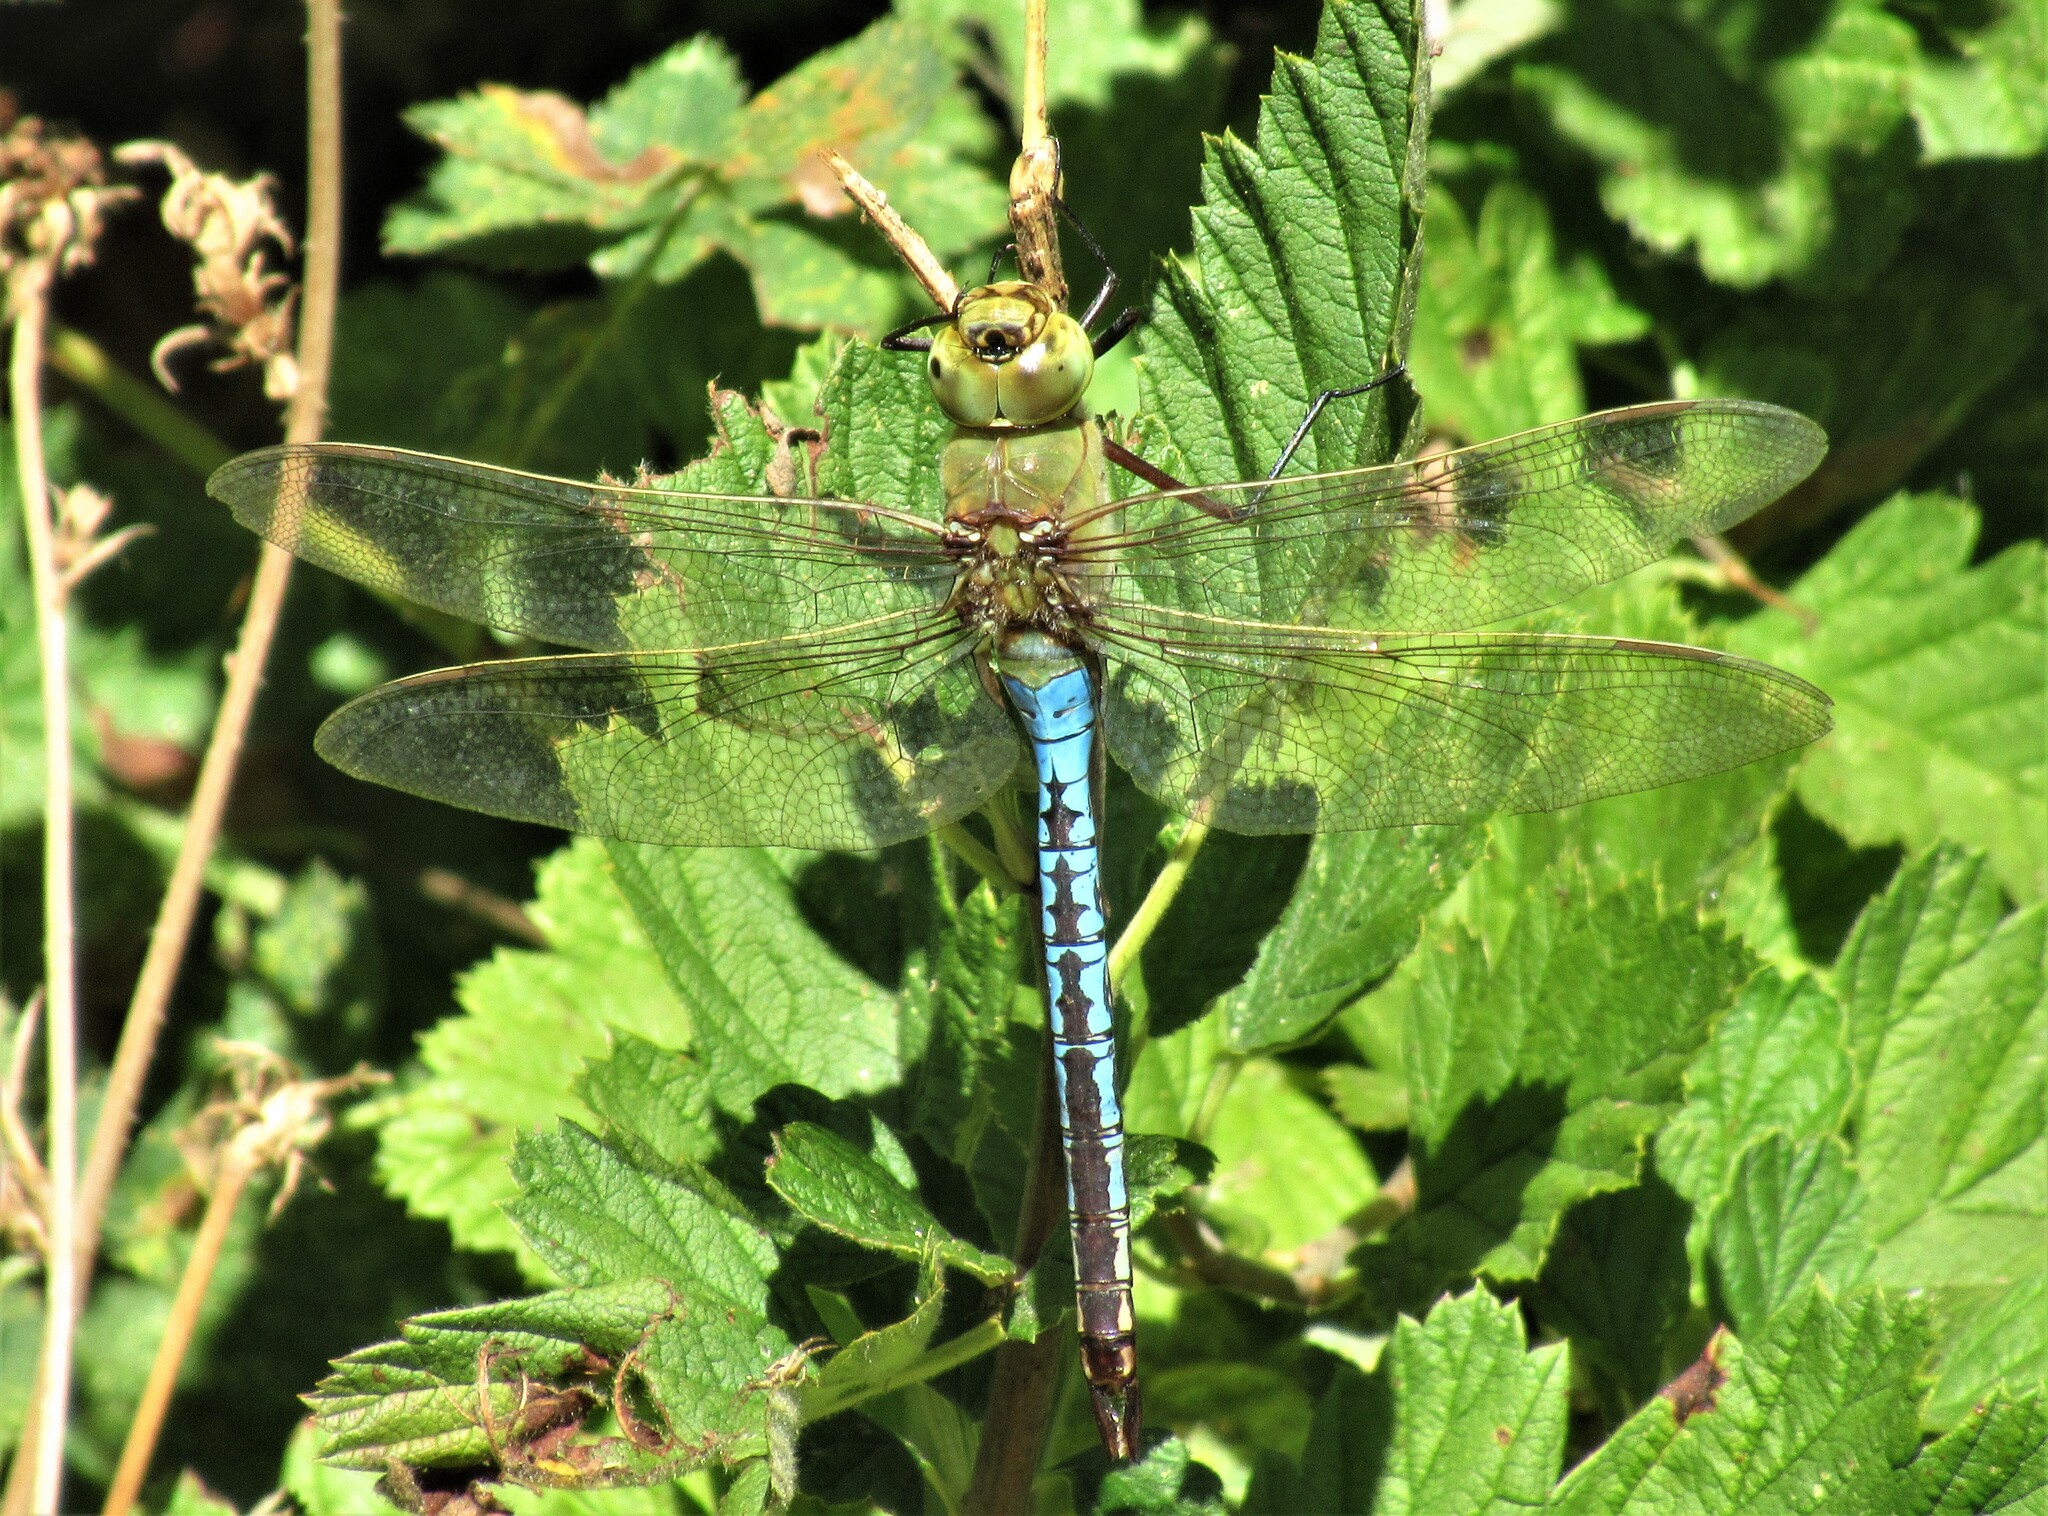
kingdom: Animalia
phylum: Arthropoda
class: Insecta
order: Odonata
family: Aeshnidae
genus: Anax
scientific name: Anax junius
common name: Common green darner
